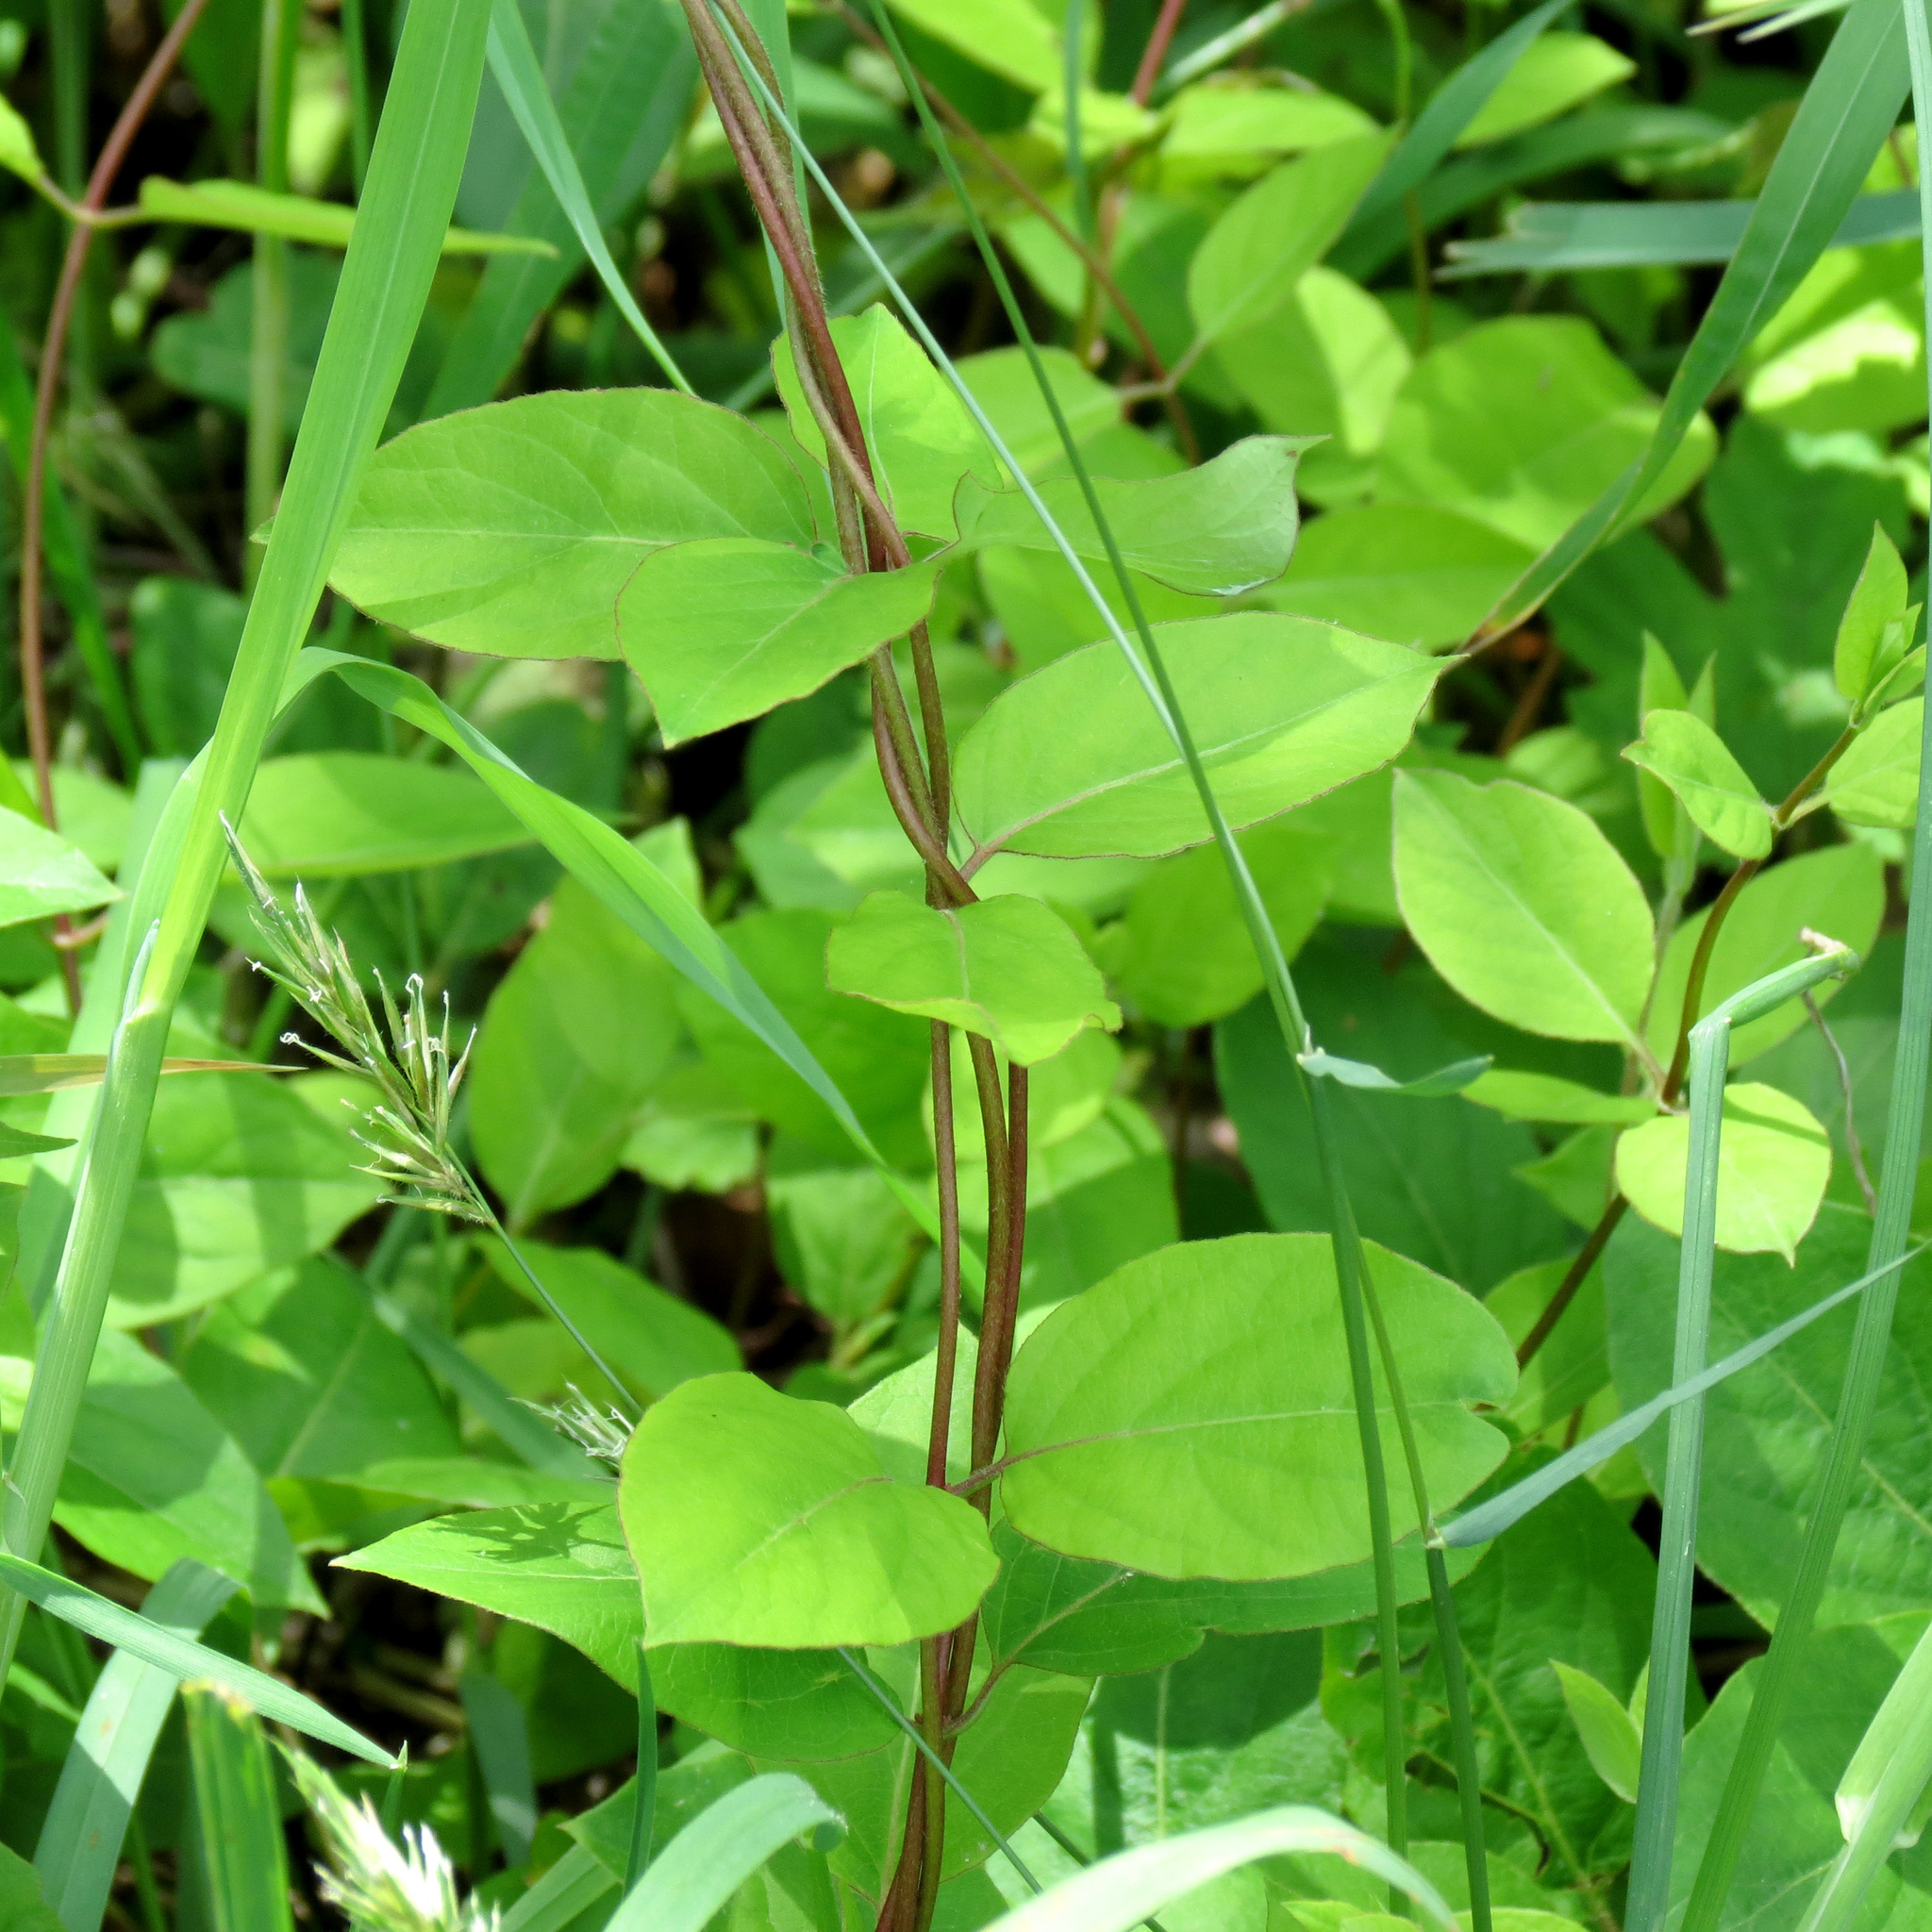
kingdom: Plantae
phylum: Tracheophyta
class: Magnoliopsida
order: Dipsacales
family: Caprifoliaceae
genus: Lonicera
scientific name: Lonicera japonica
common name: Japanese honeysuckle
